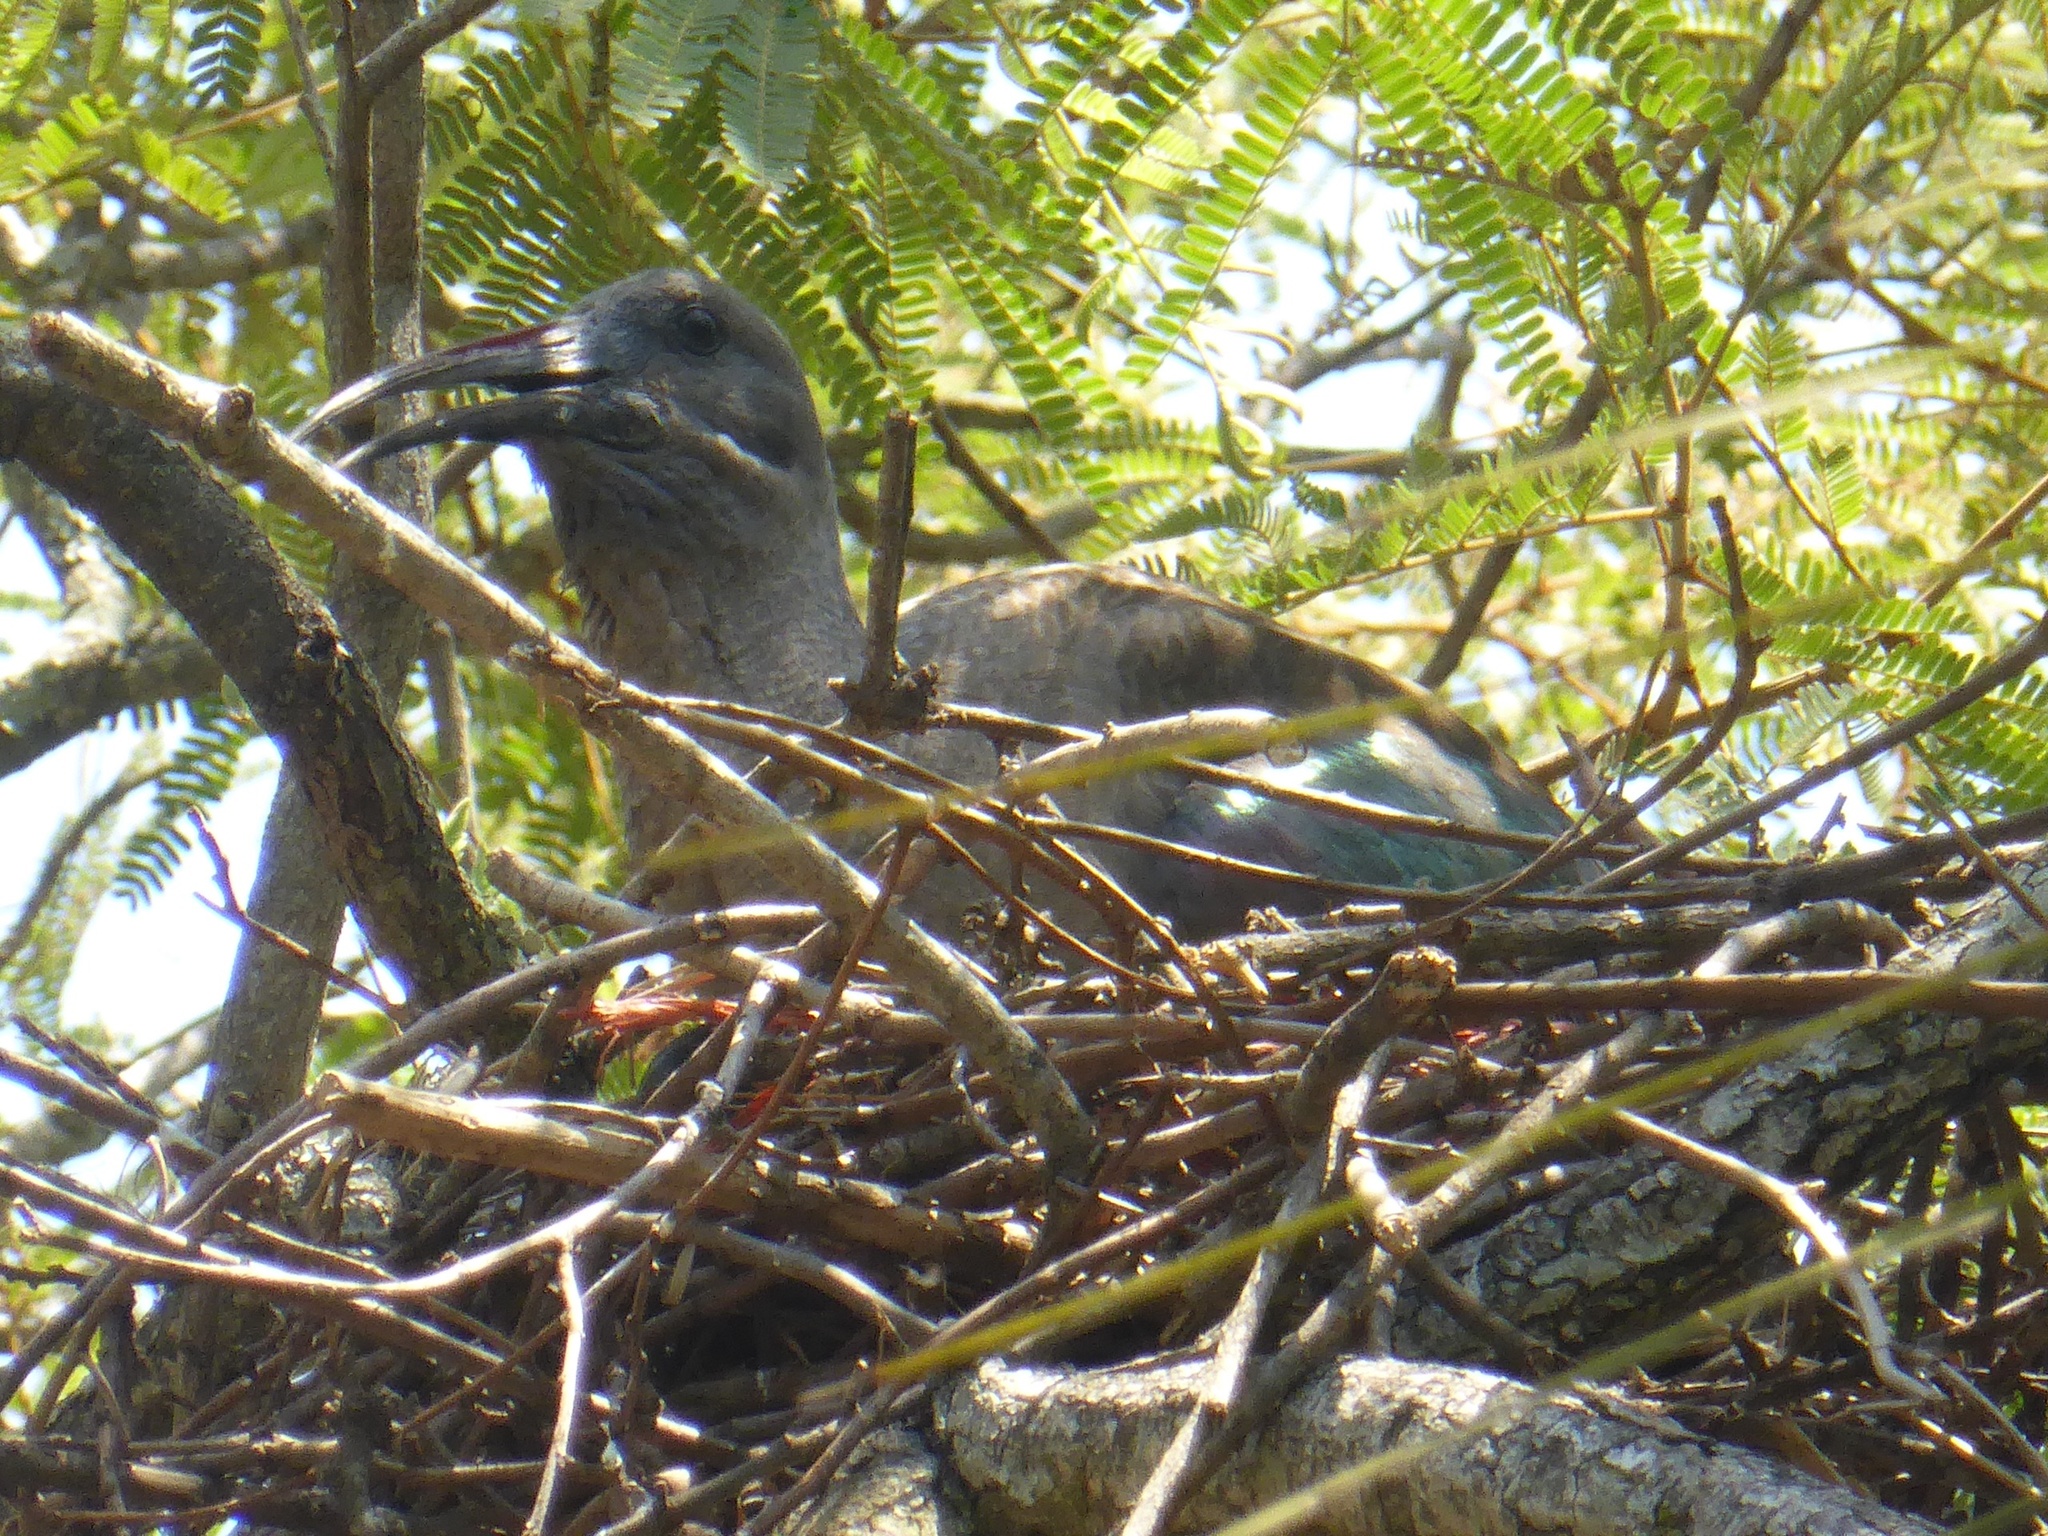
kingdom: Animalia
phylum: Chordata
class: Aves
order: Pelecaniformes
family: Threskiornithidae
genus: Bostrychia
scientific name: Bostrychia hagedash
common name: Hadada ibis
